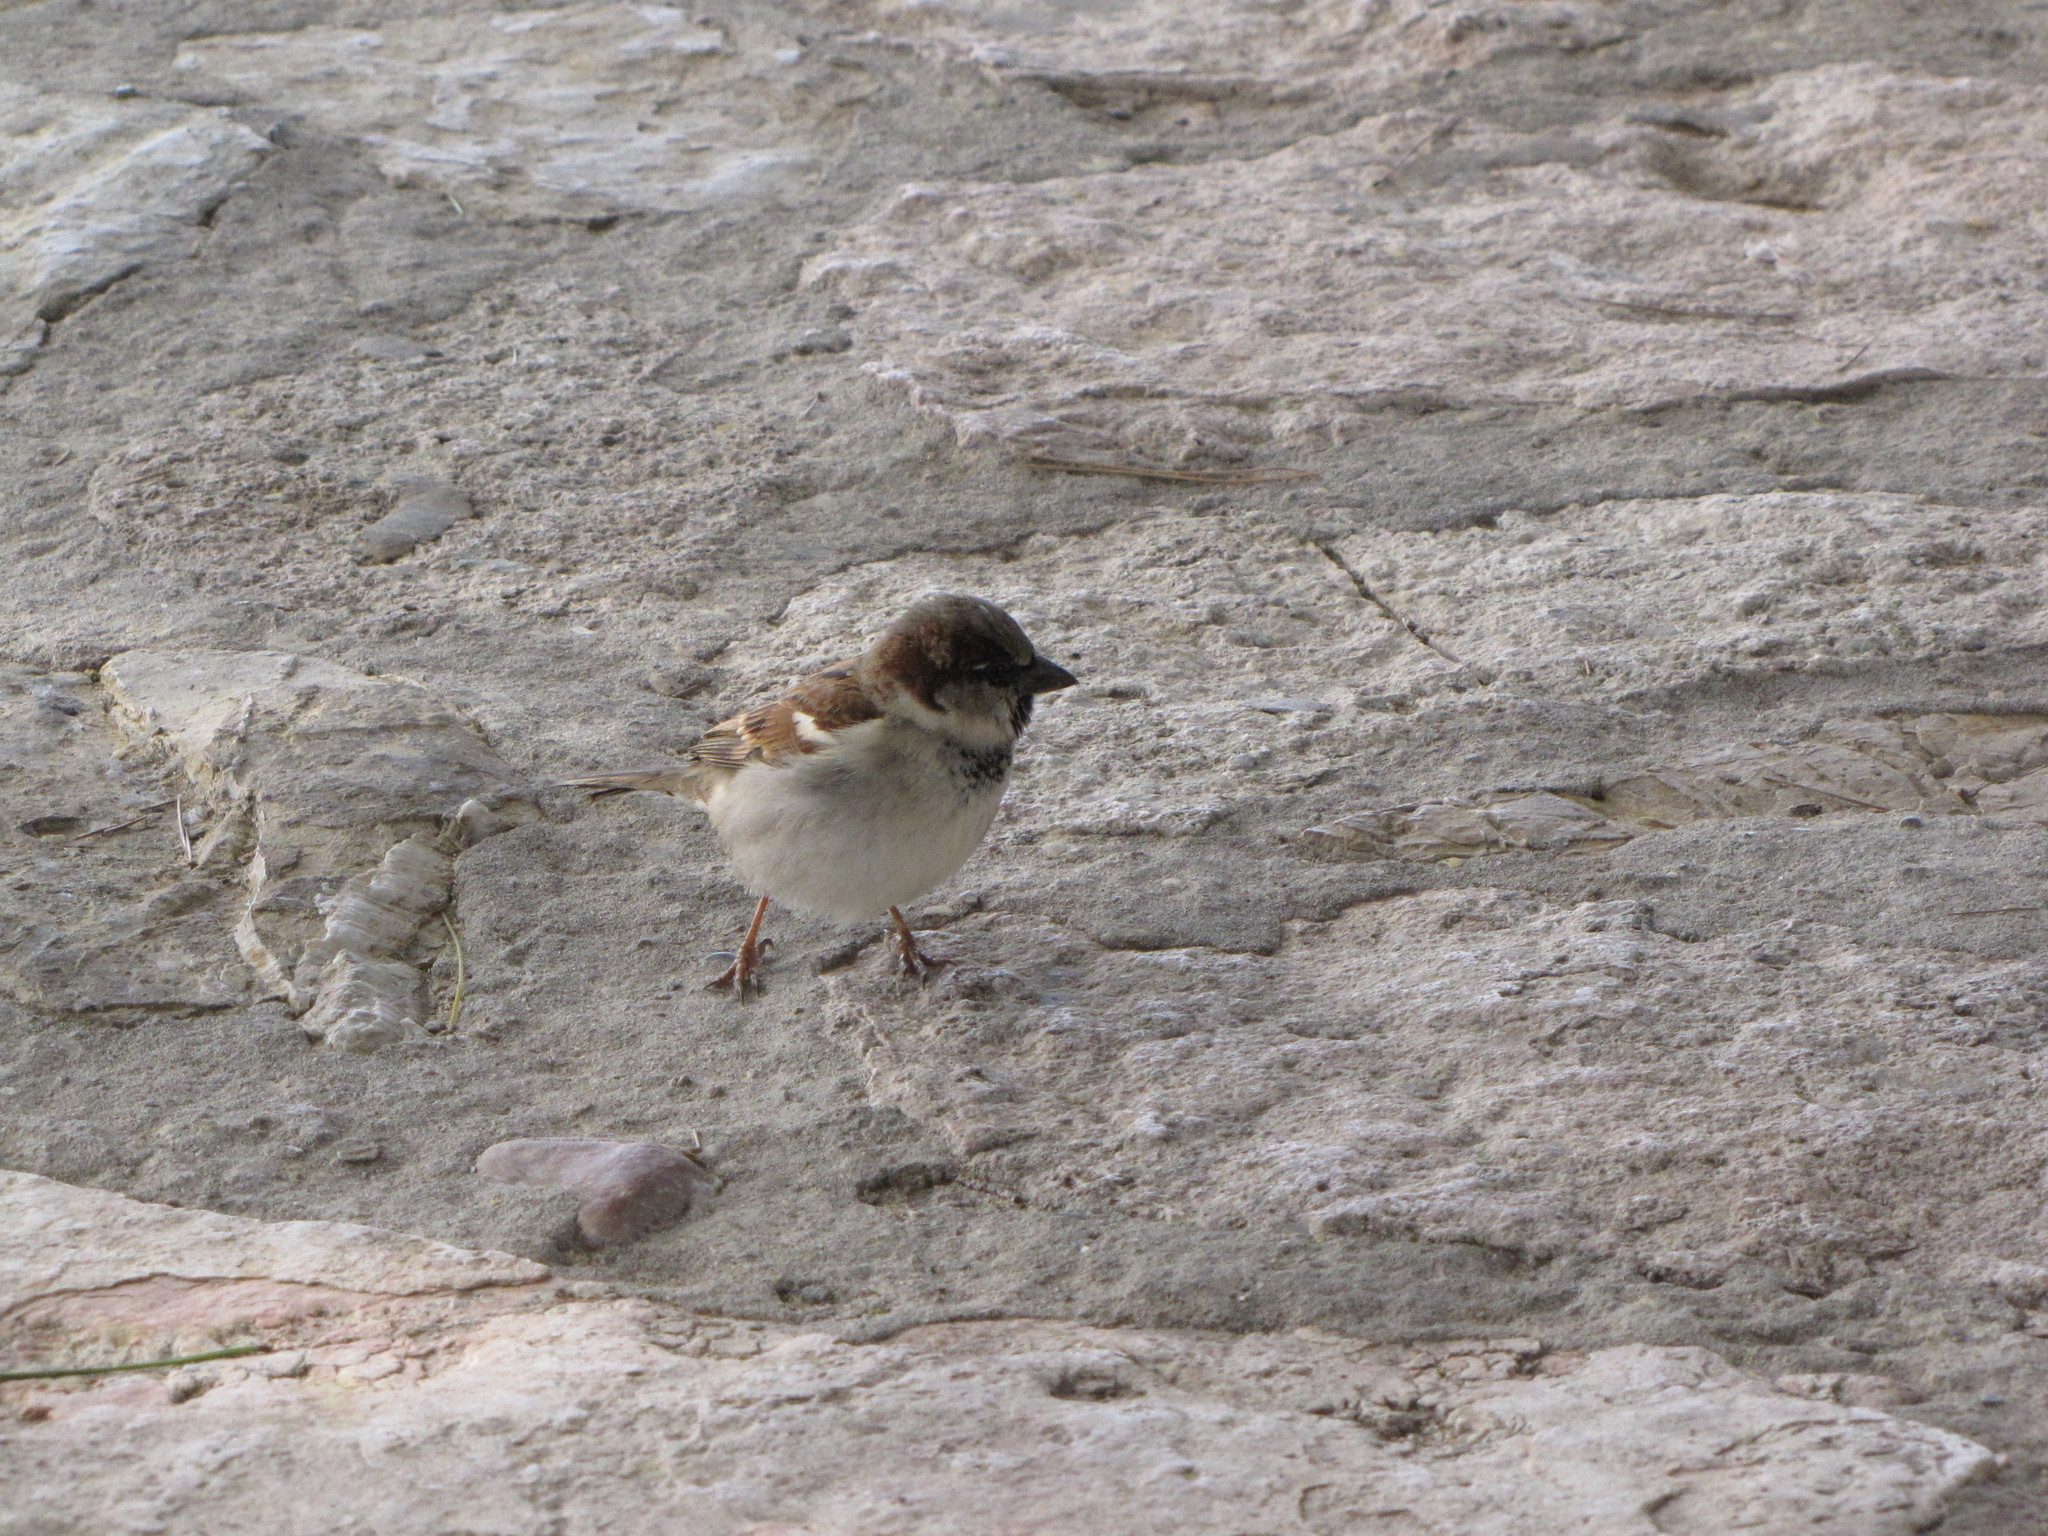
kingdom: Animalia
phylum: Chordata
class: Aves
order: Passeriformes
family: Passeridae
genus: Passer
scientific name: Passer domesticus
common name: House sparrow
